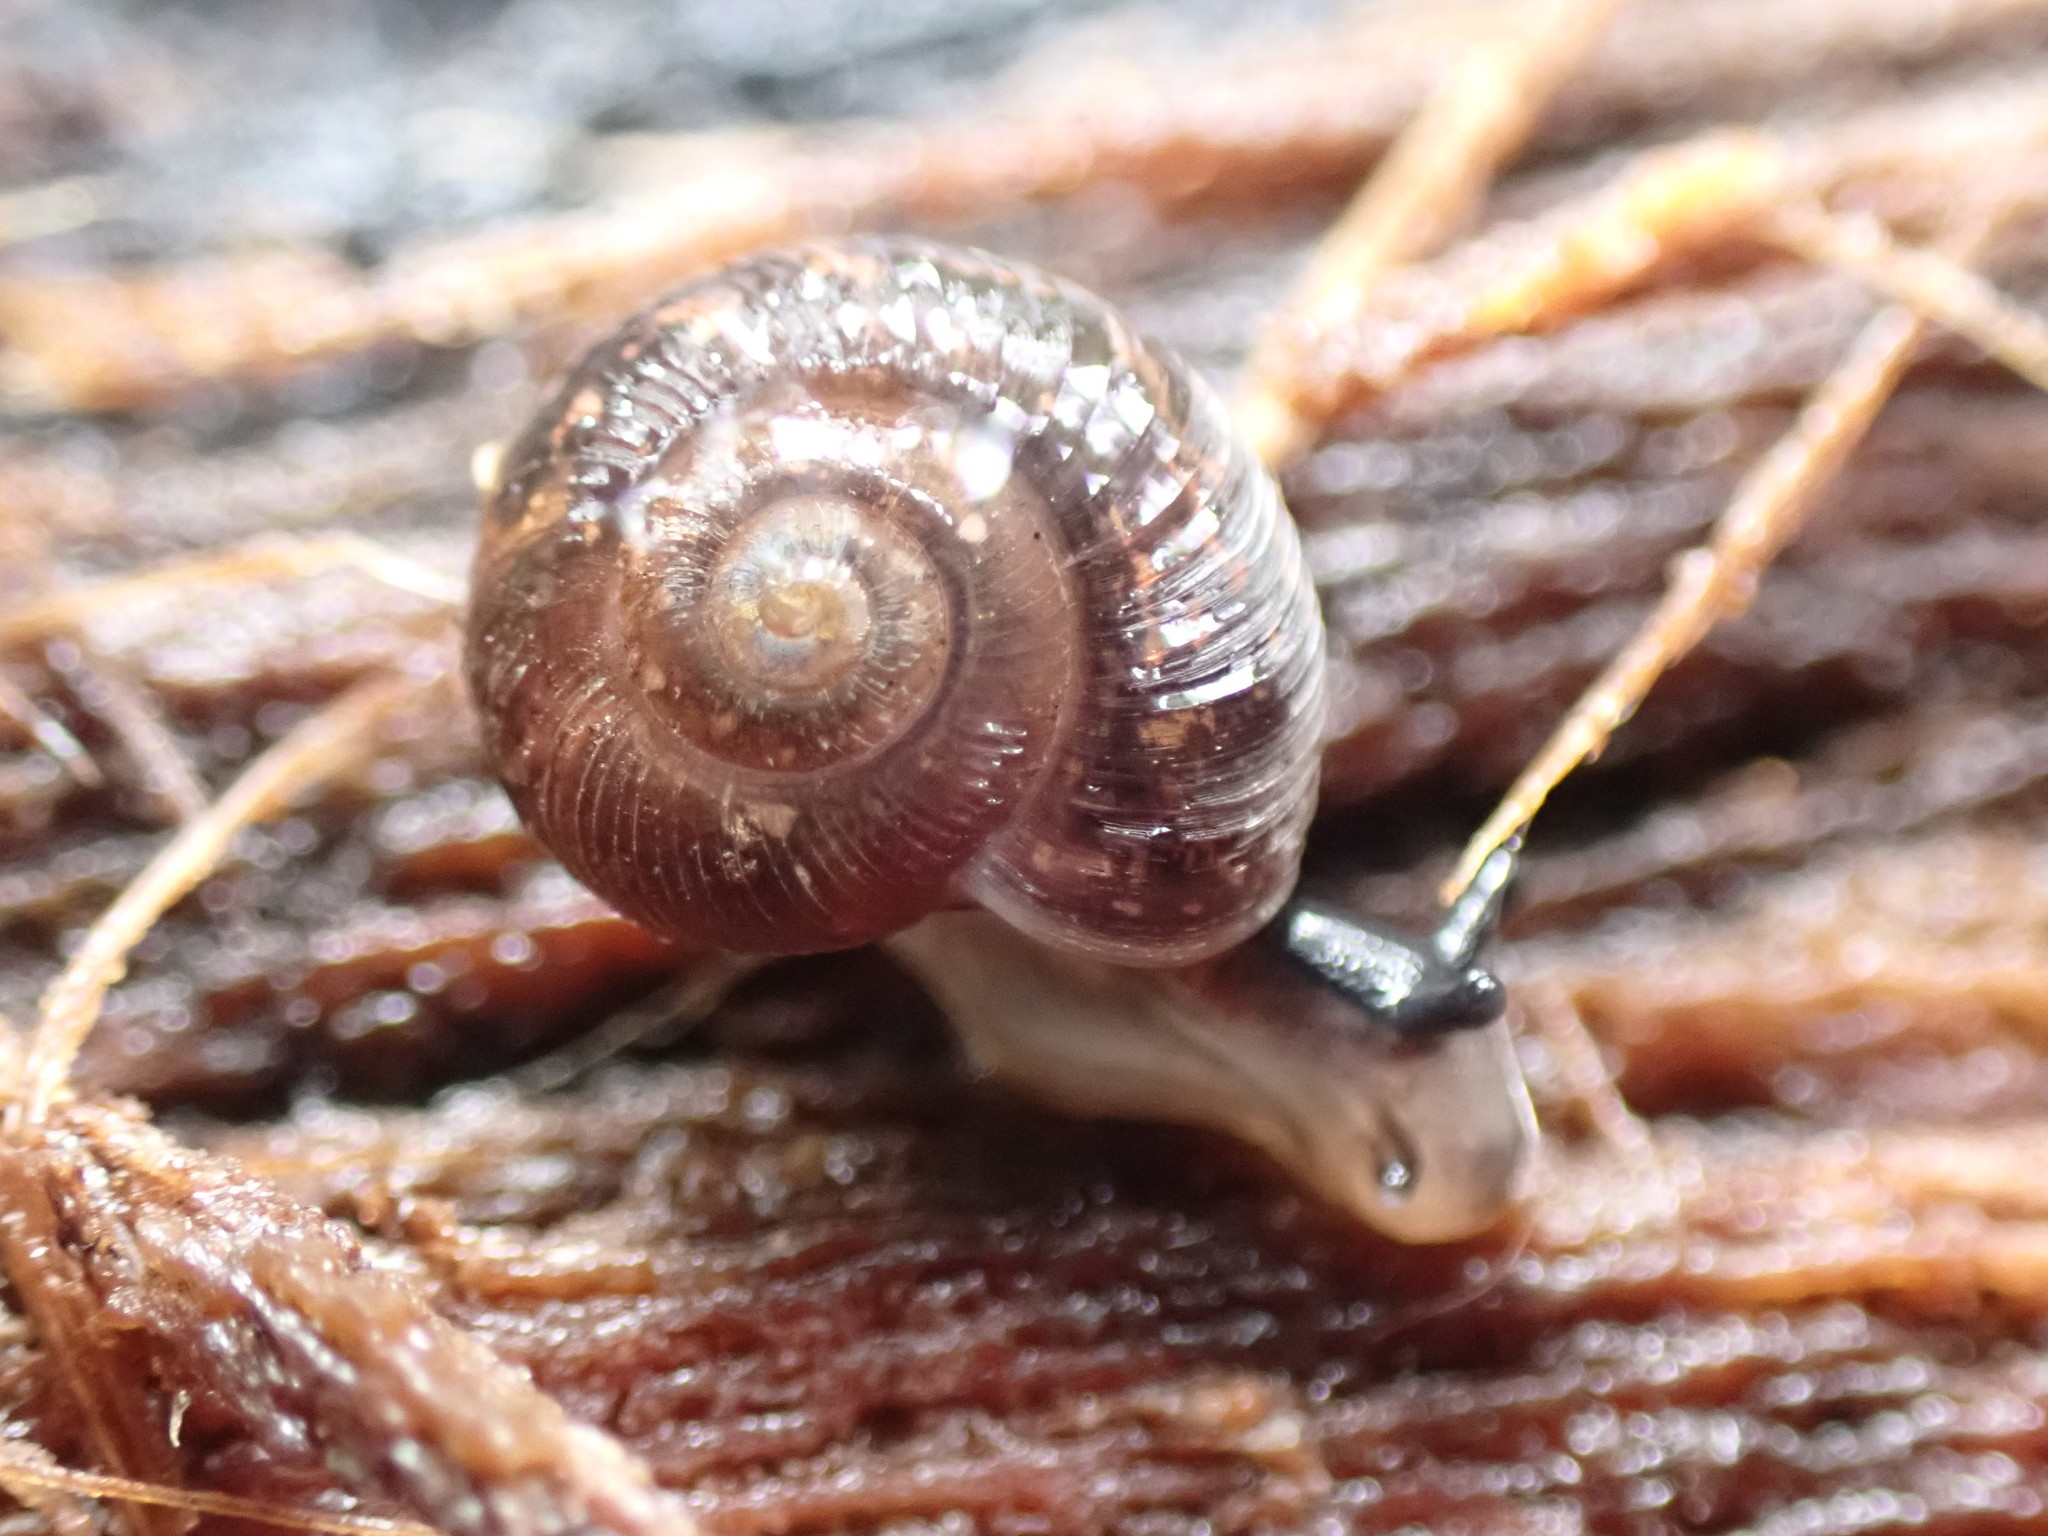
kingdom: Animalia
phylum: Mollusca
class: Gastropoda
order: Stylommatophora
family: Charopidae
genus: Stenacapha
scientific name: Stenacapha hamiltoni
